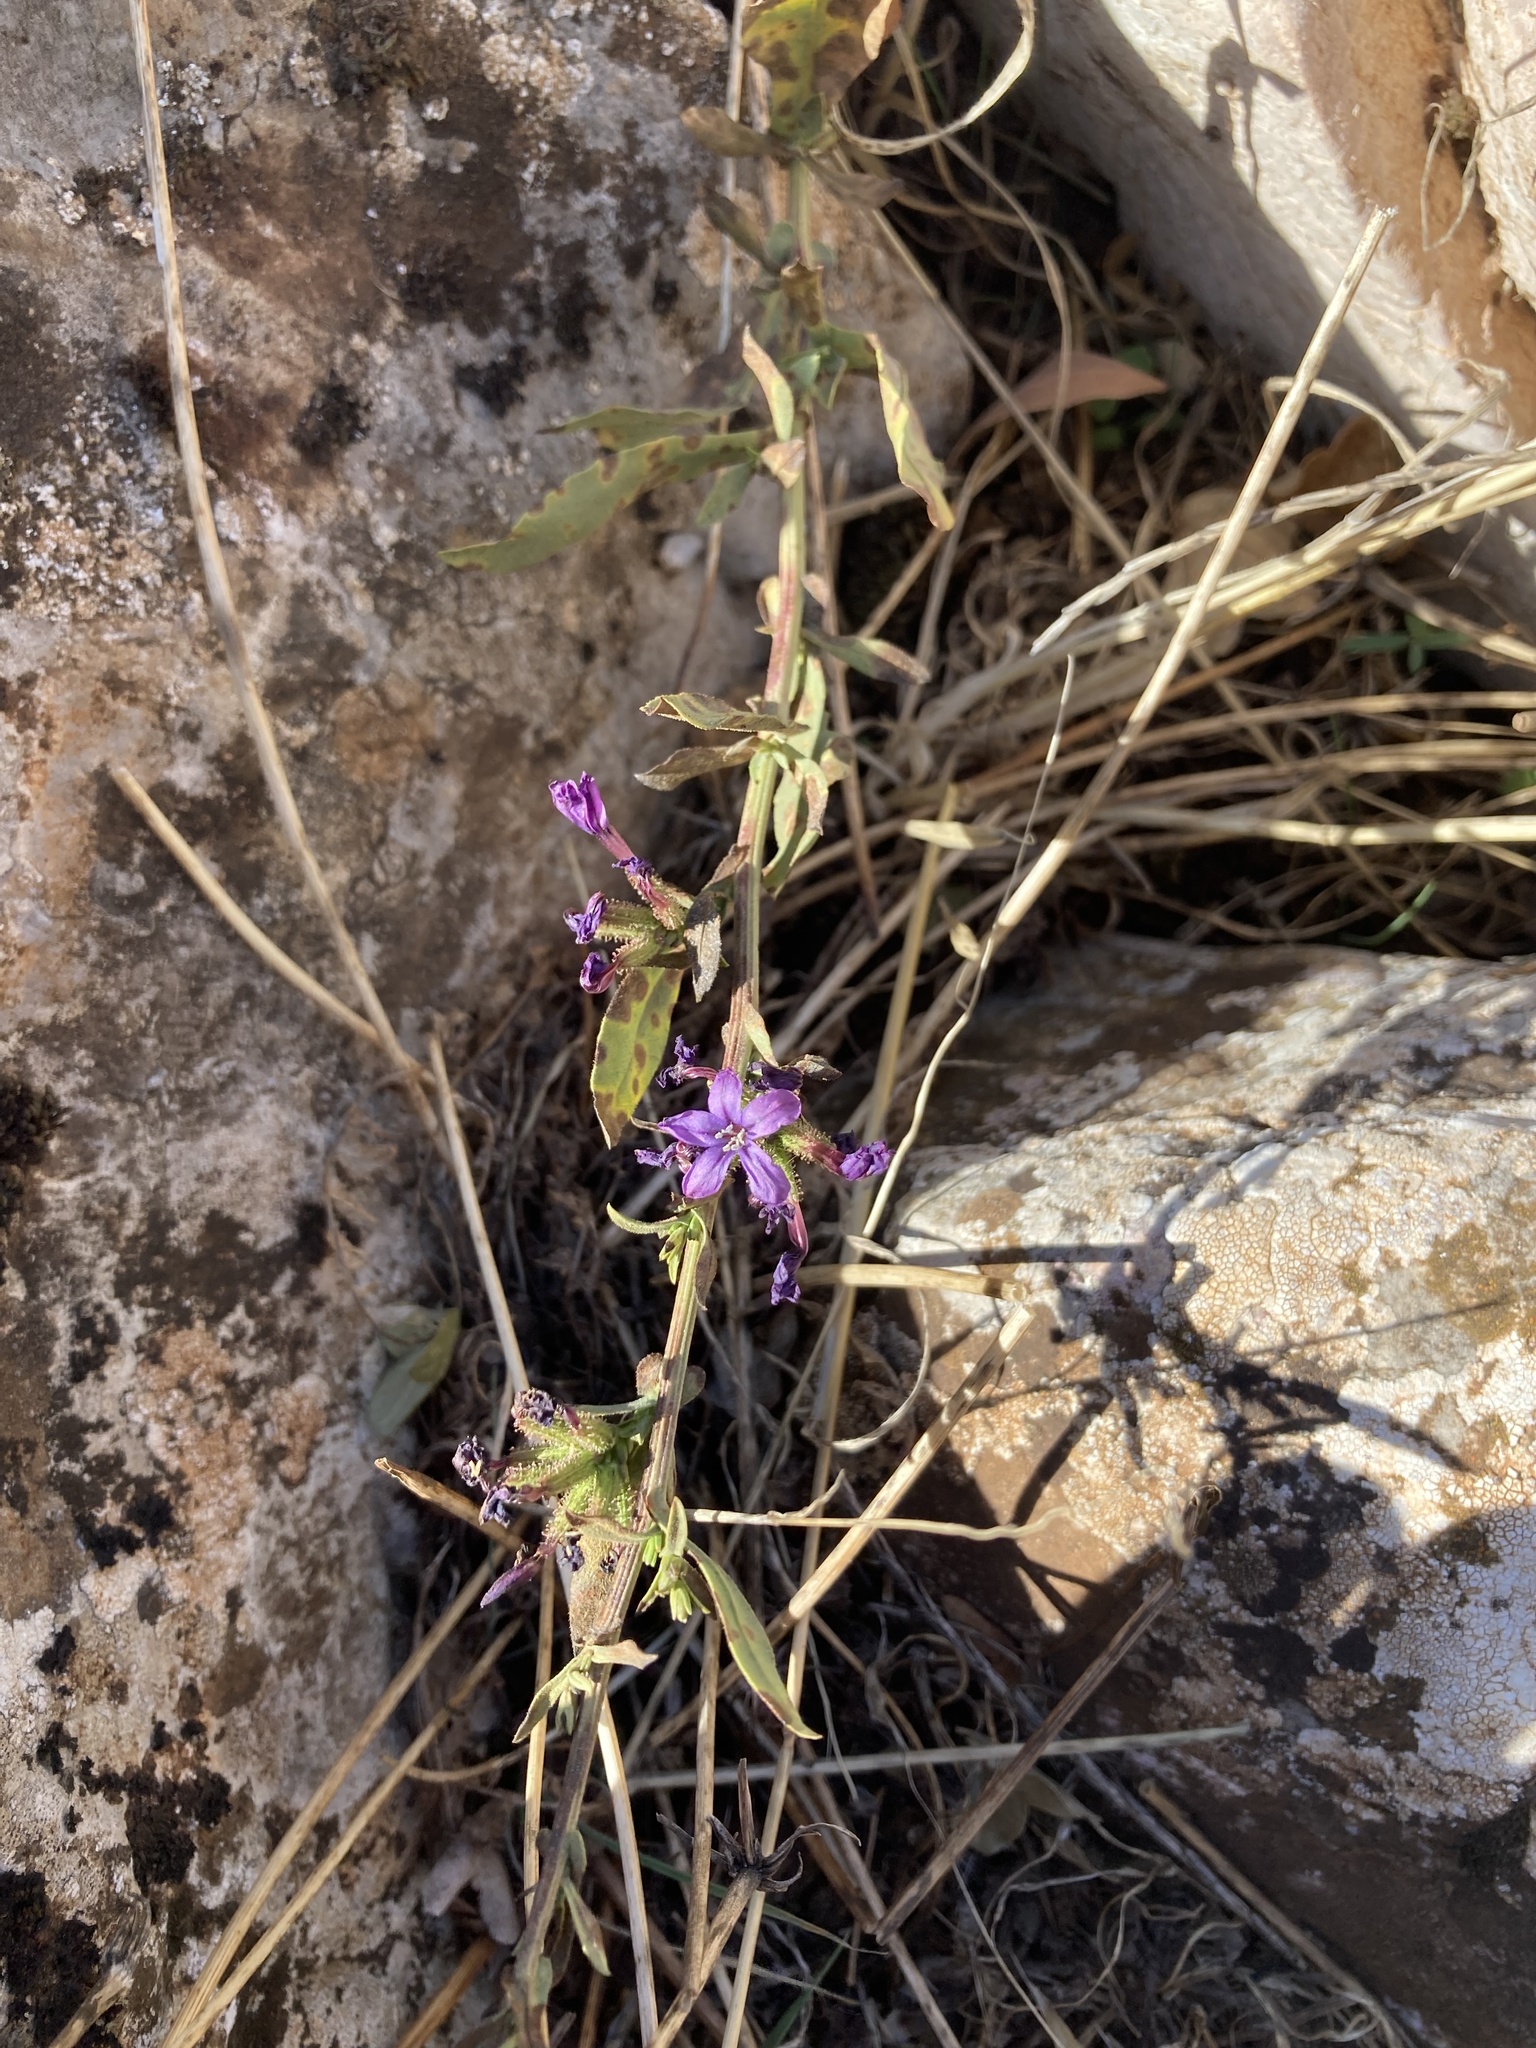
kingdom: Plantae
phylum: Tracheophyta
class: Magnoliopsida
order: Caryophyllales
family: Plumbaginaceae
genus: Plumbago
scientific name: Plumbago europaea
